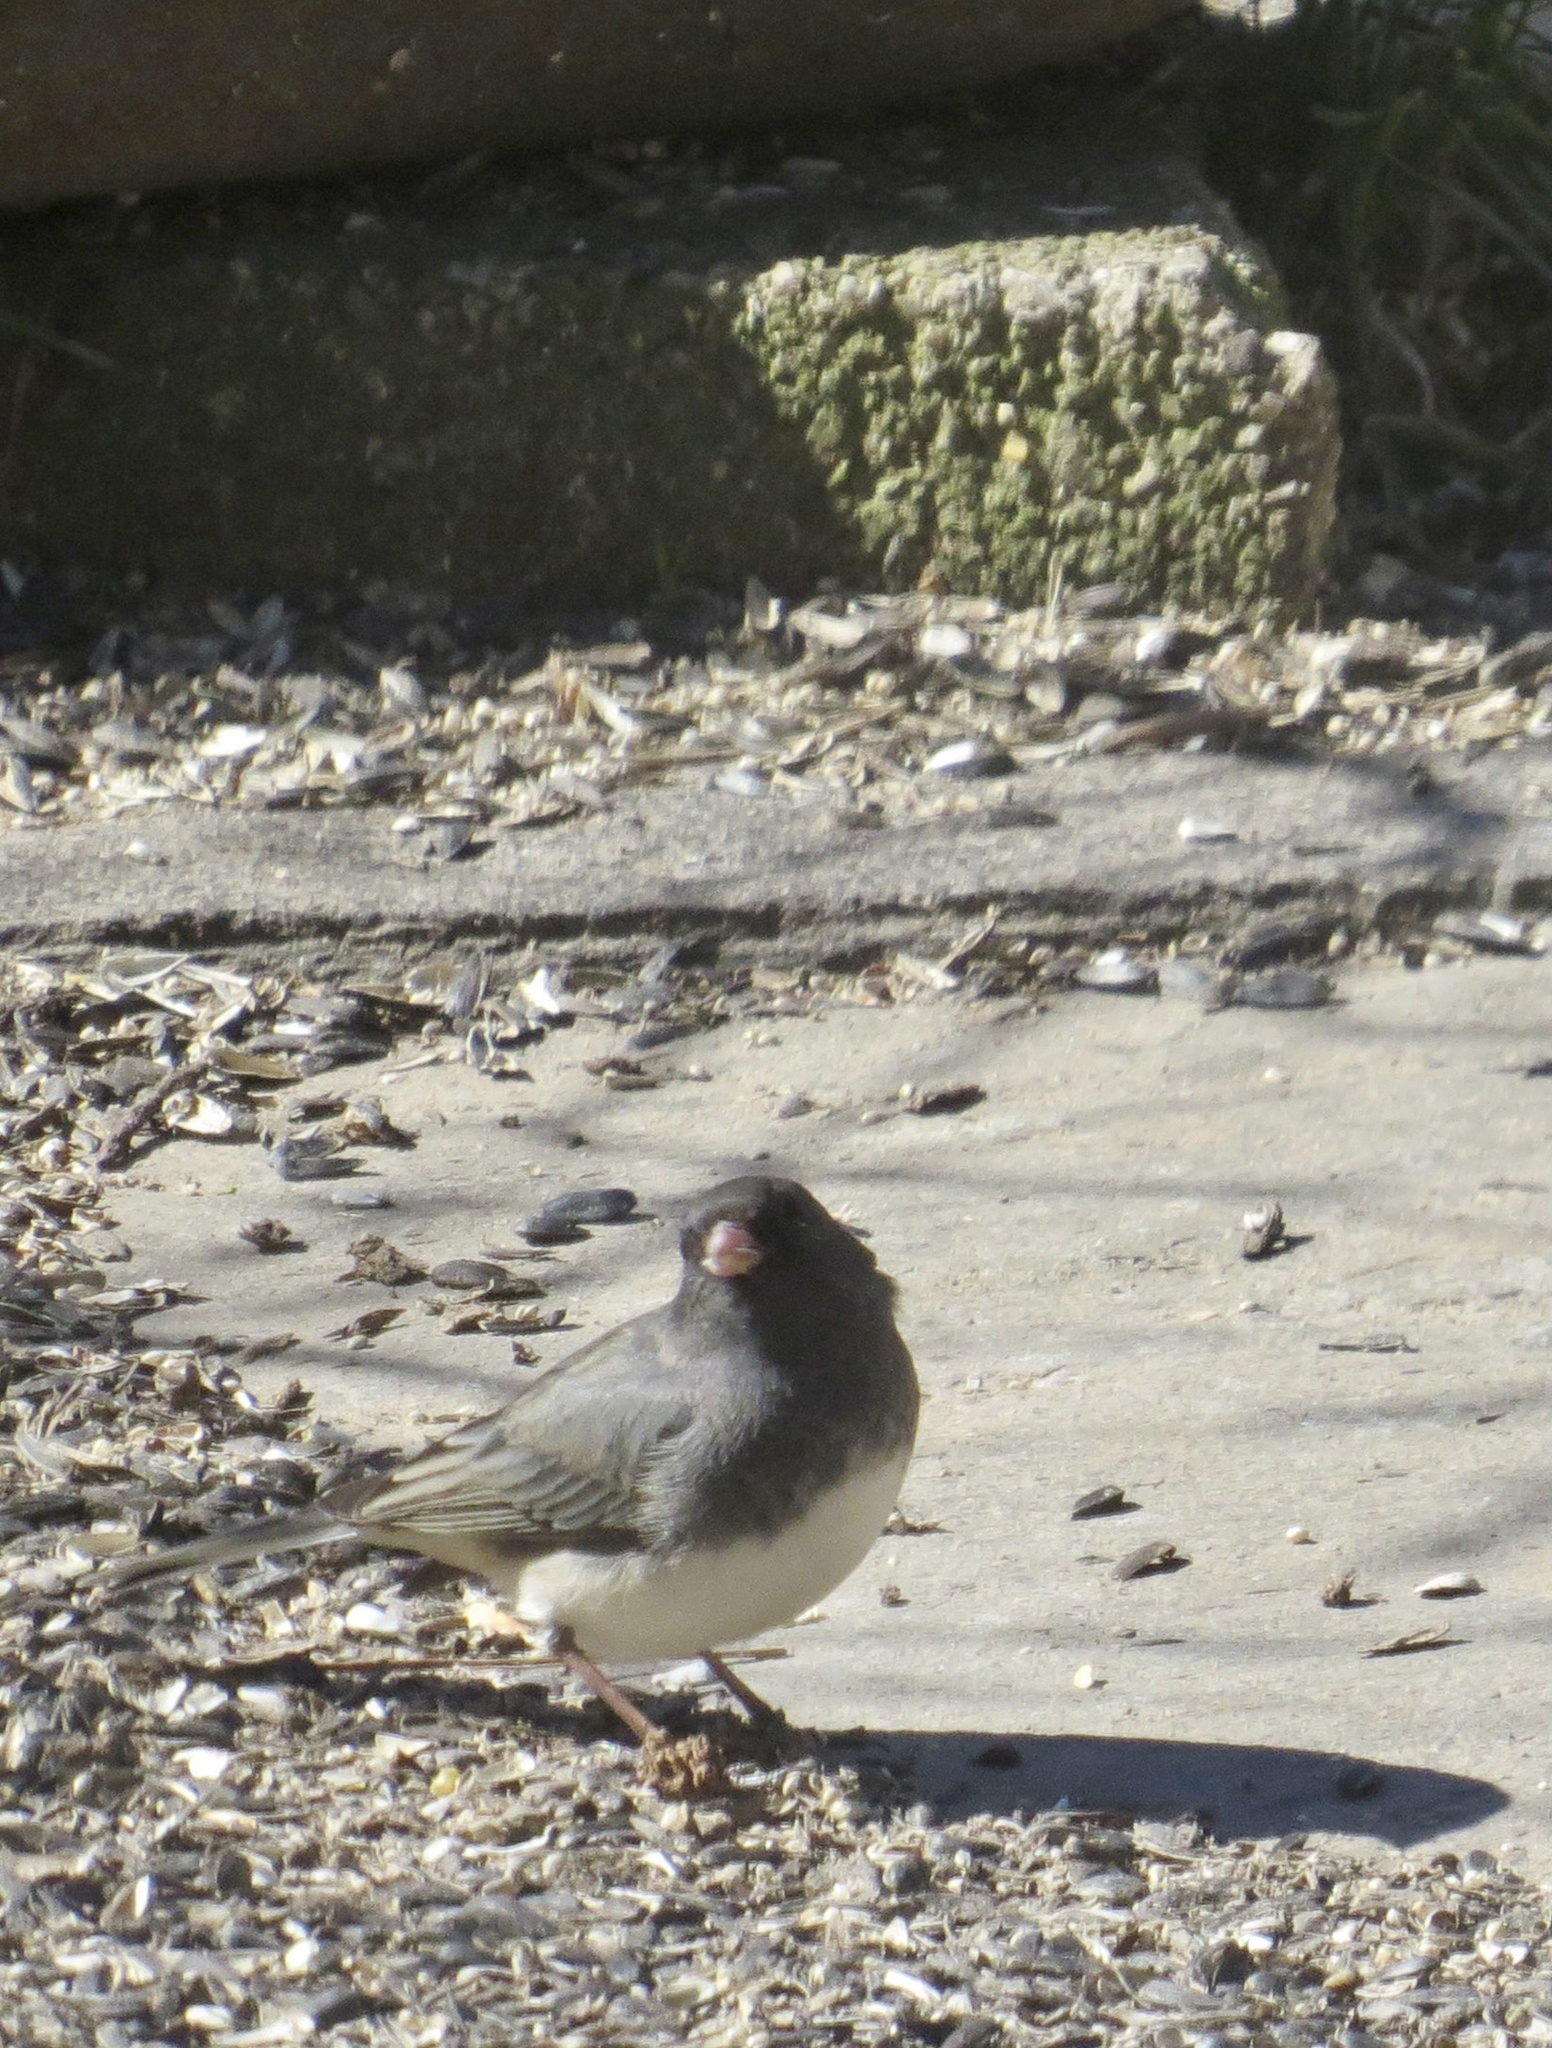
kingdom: Animalia
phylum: Chordata
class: Aves
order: Passeriformes
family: Passerellidae
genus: Junco
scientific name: Junco hyemalis
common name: Dark-eyed junco
